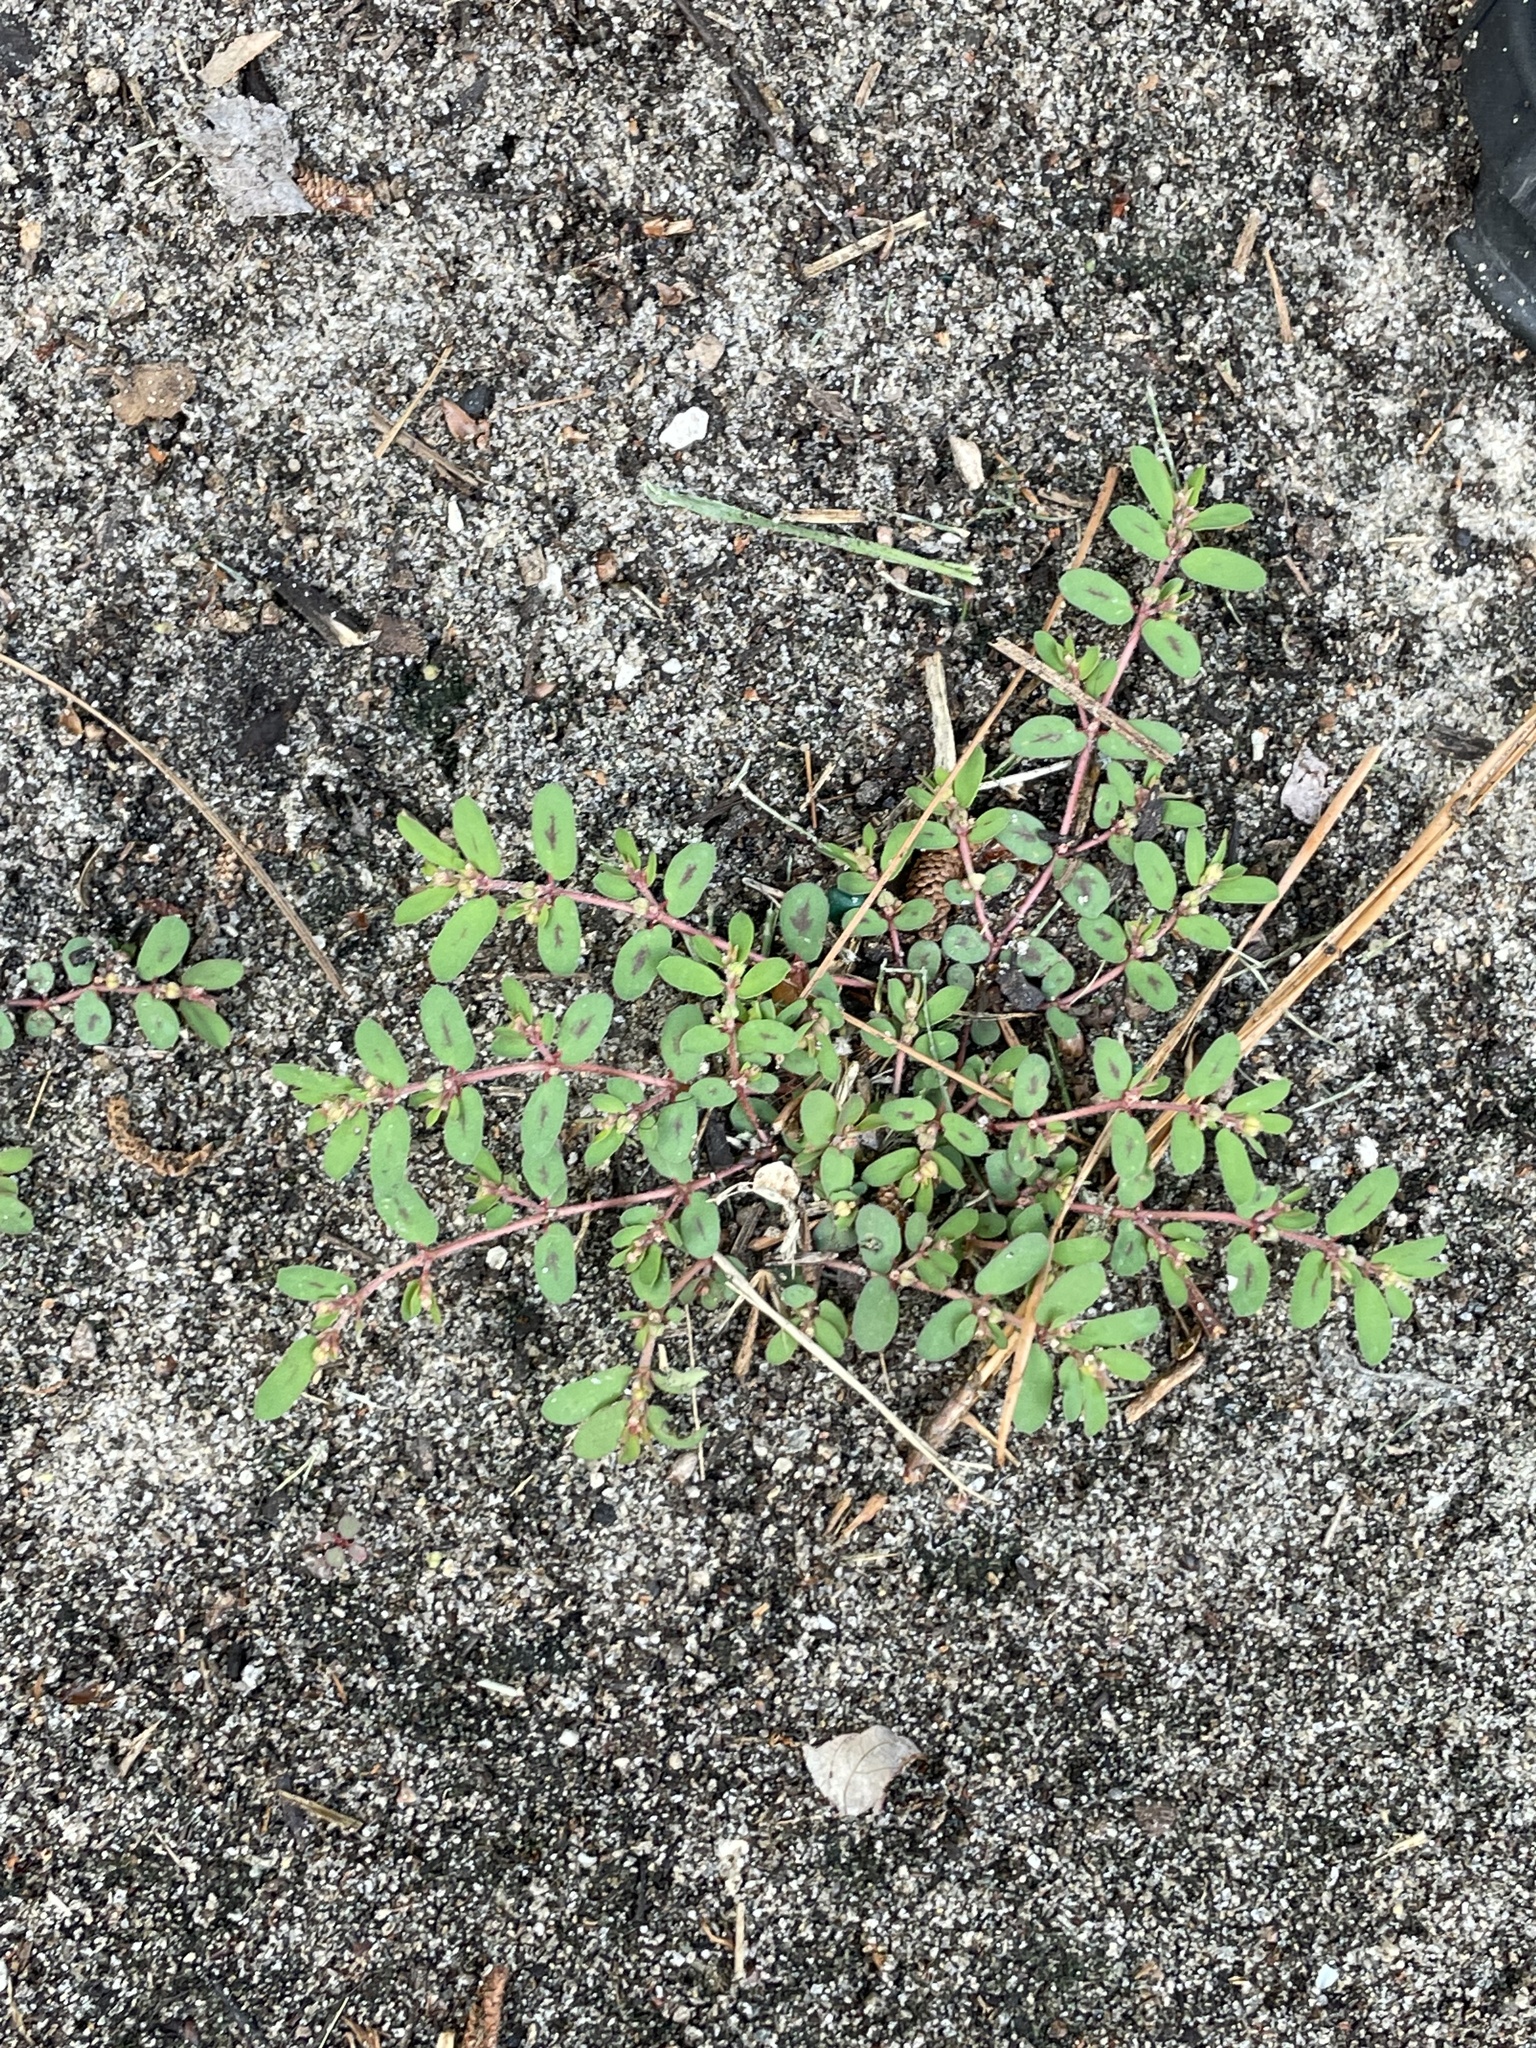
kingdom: Plantae
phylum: Tracheophyta
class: Magnoliopsida
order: Malpighiales
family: Euphorbiaceae
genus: Euphorbia
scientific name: Euphorbia maculata
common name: Spotted spurge
